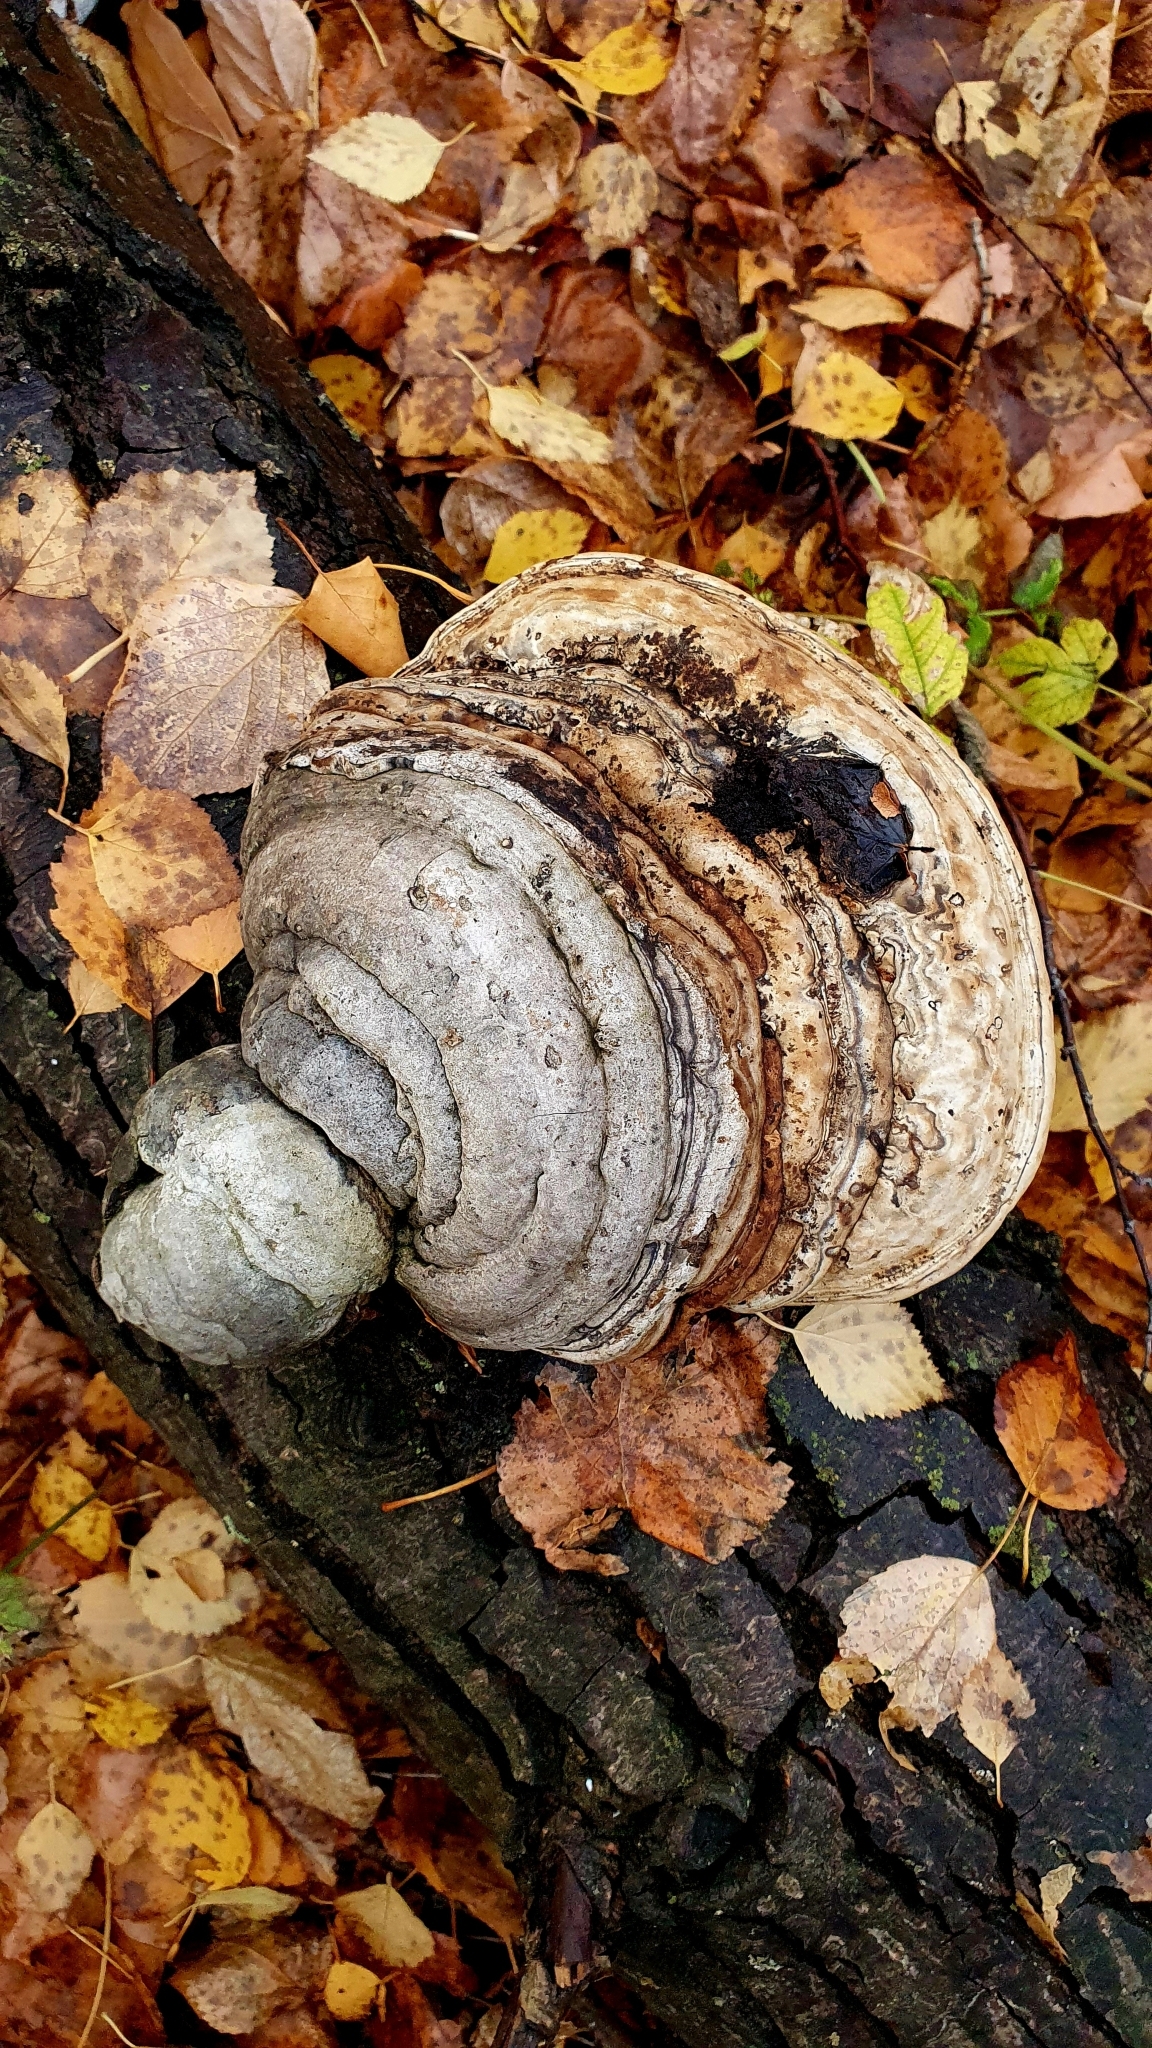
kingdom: Fungi
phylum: Basidiomycota
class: Agaricomycetes
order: Polyporales
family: Polyporaceae
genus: Fomes
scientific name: Fomes fomentarius
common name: Hoof fungus
